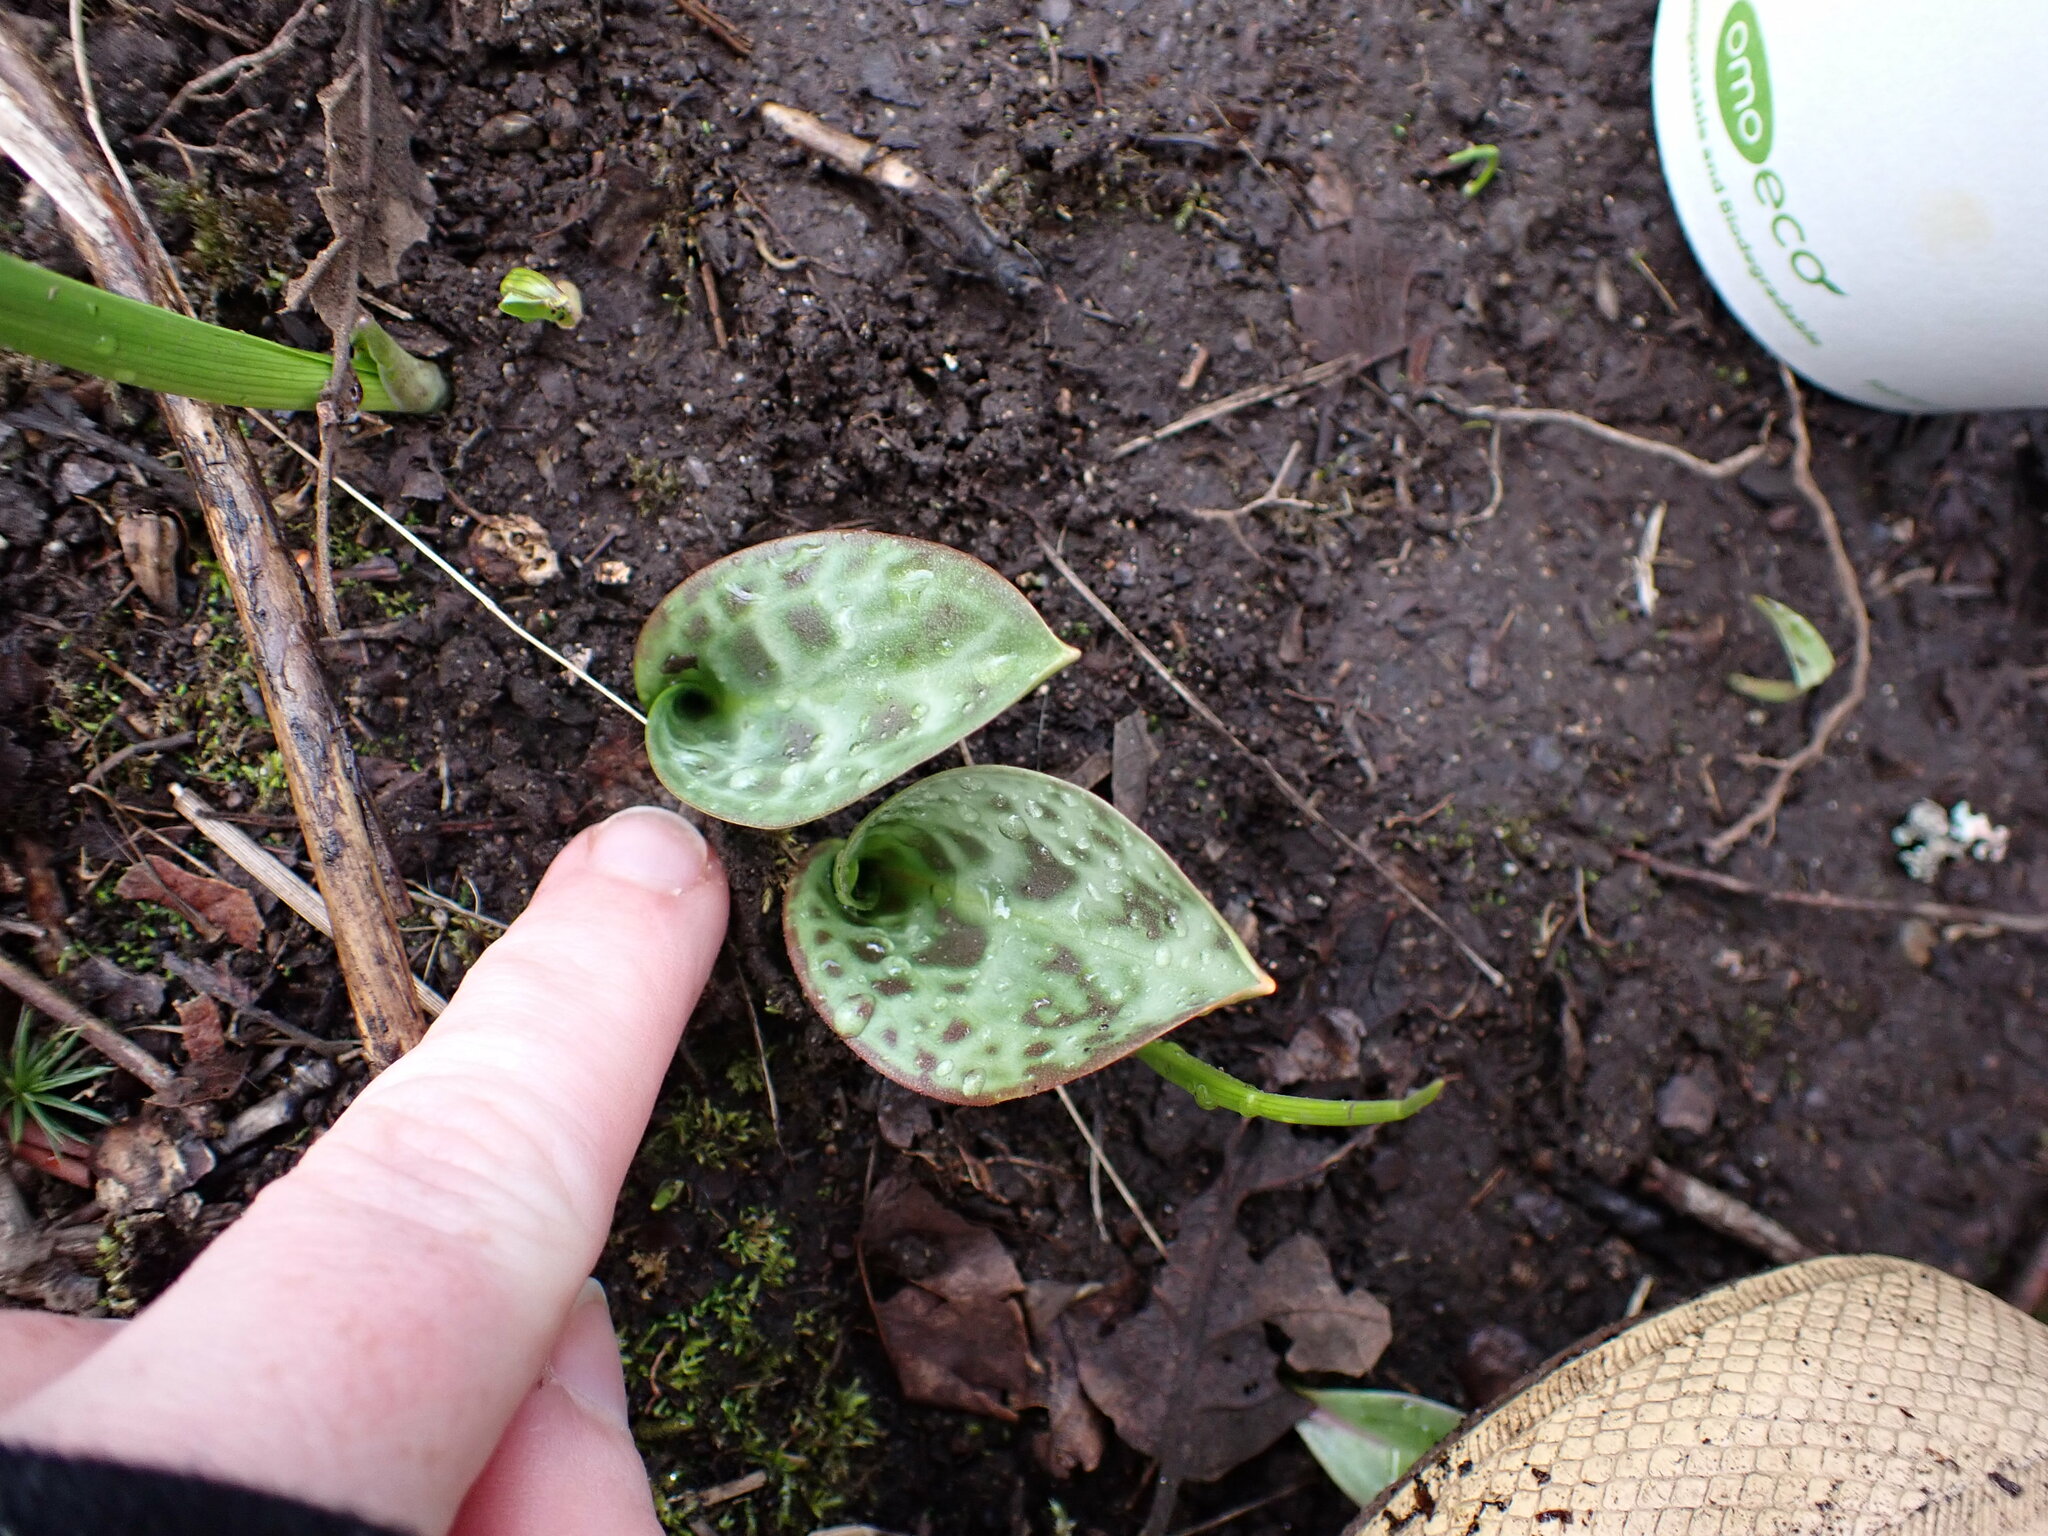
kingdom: Plantae
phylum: Tracheophyta
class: Liliopsida
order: Liliales
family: Liliaceae
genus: Erythronium
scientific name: Erythronium oregonum
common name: Giant adder's-tongue
